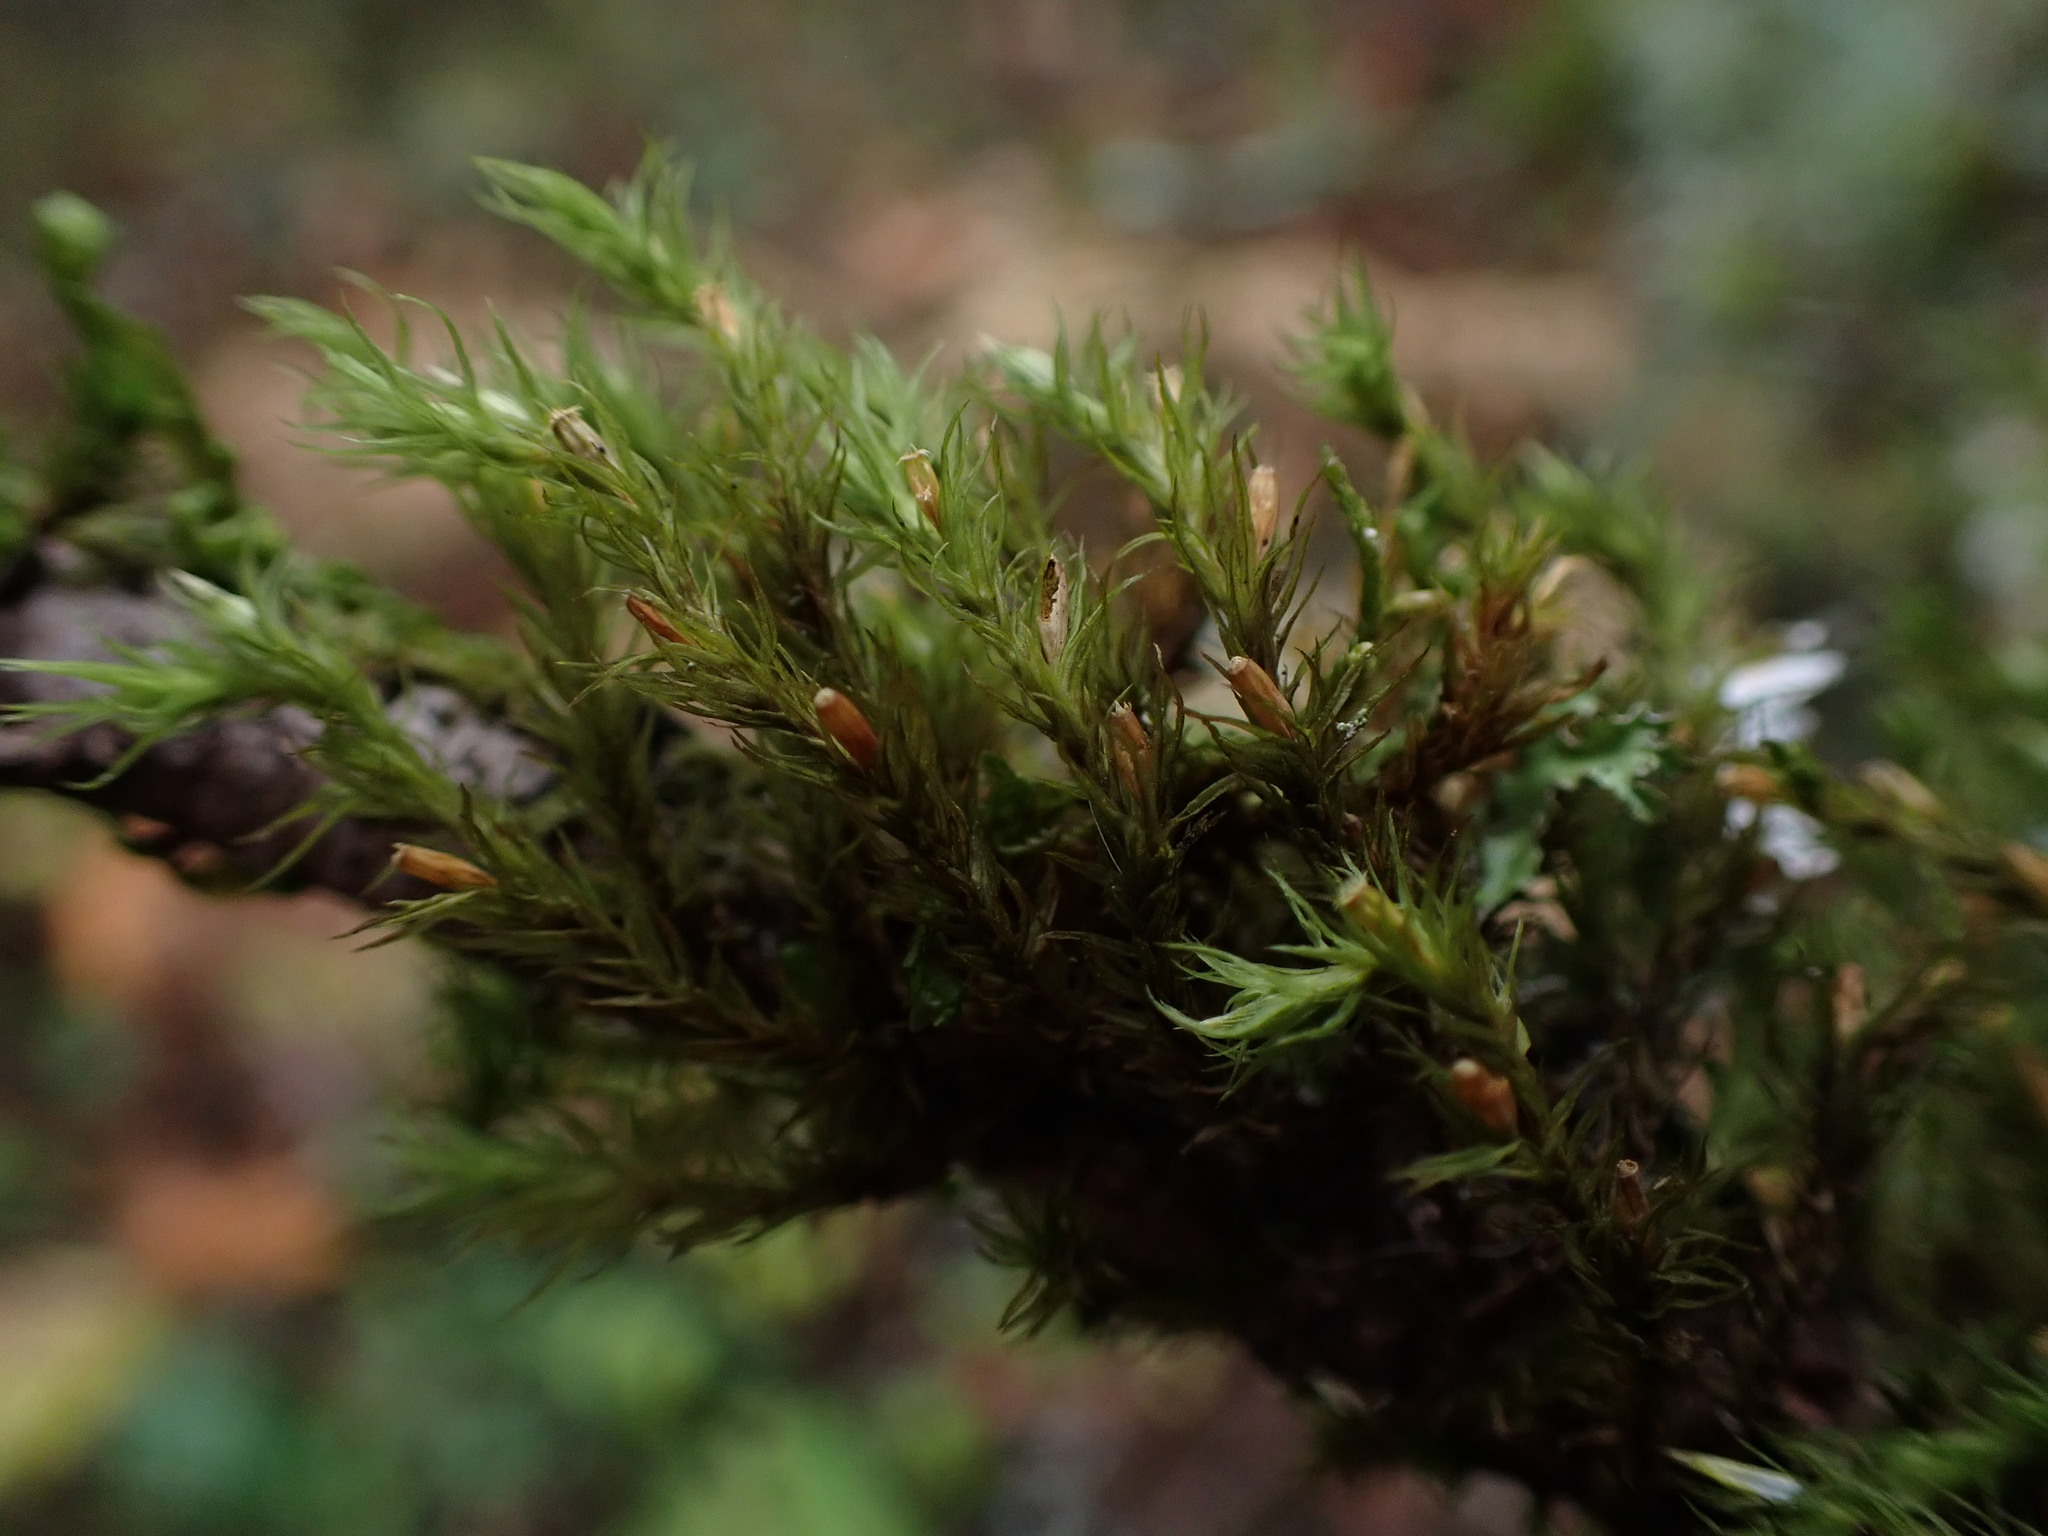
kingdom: Plantae
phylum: Bryophyta
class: Bryopsida
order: Orthotrichales
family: Orthotrichaceae
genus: Pulvigera
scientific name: Pulvigera papillosa
